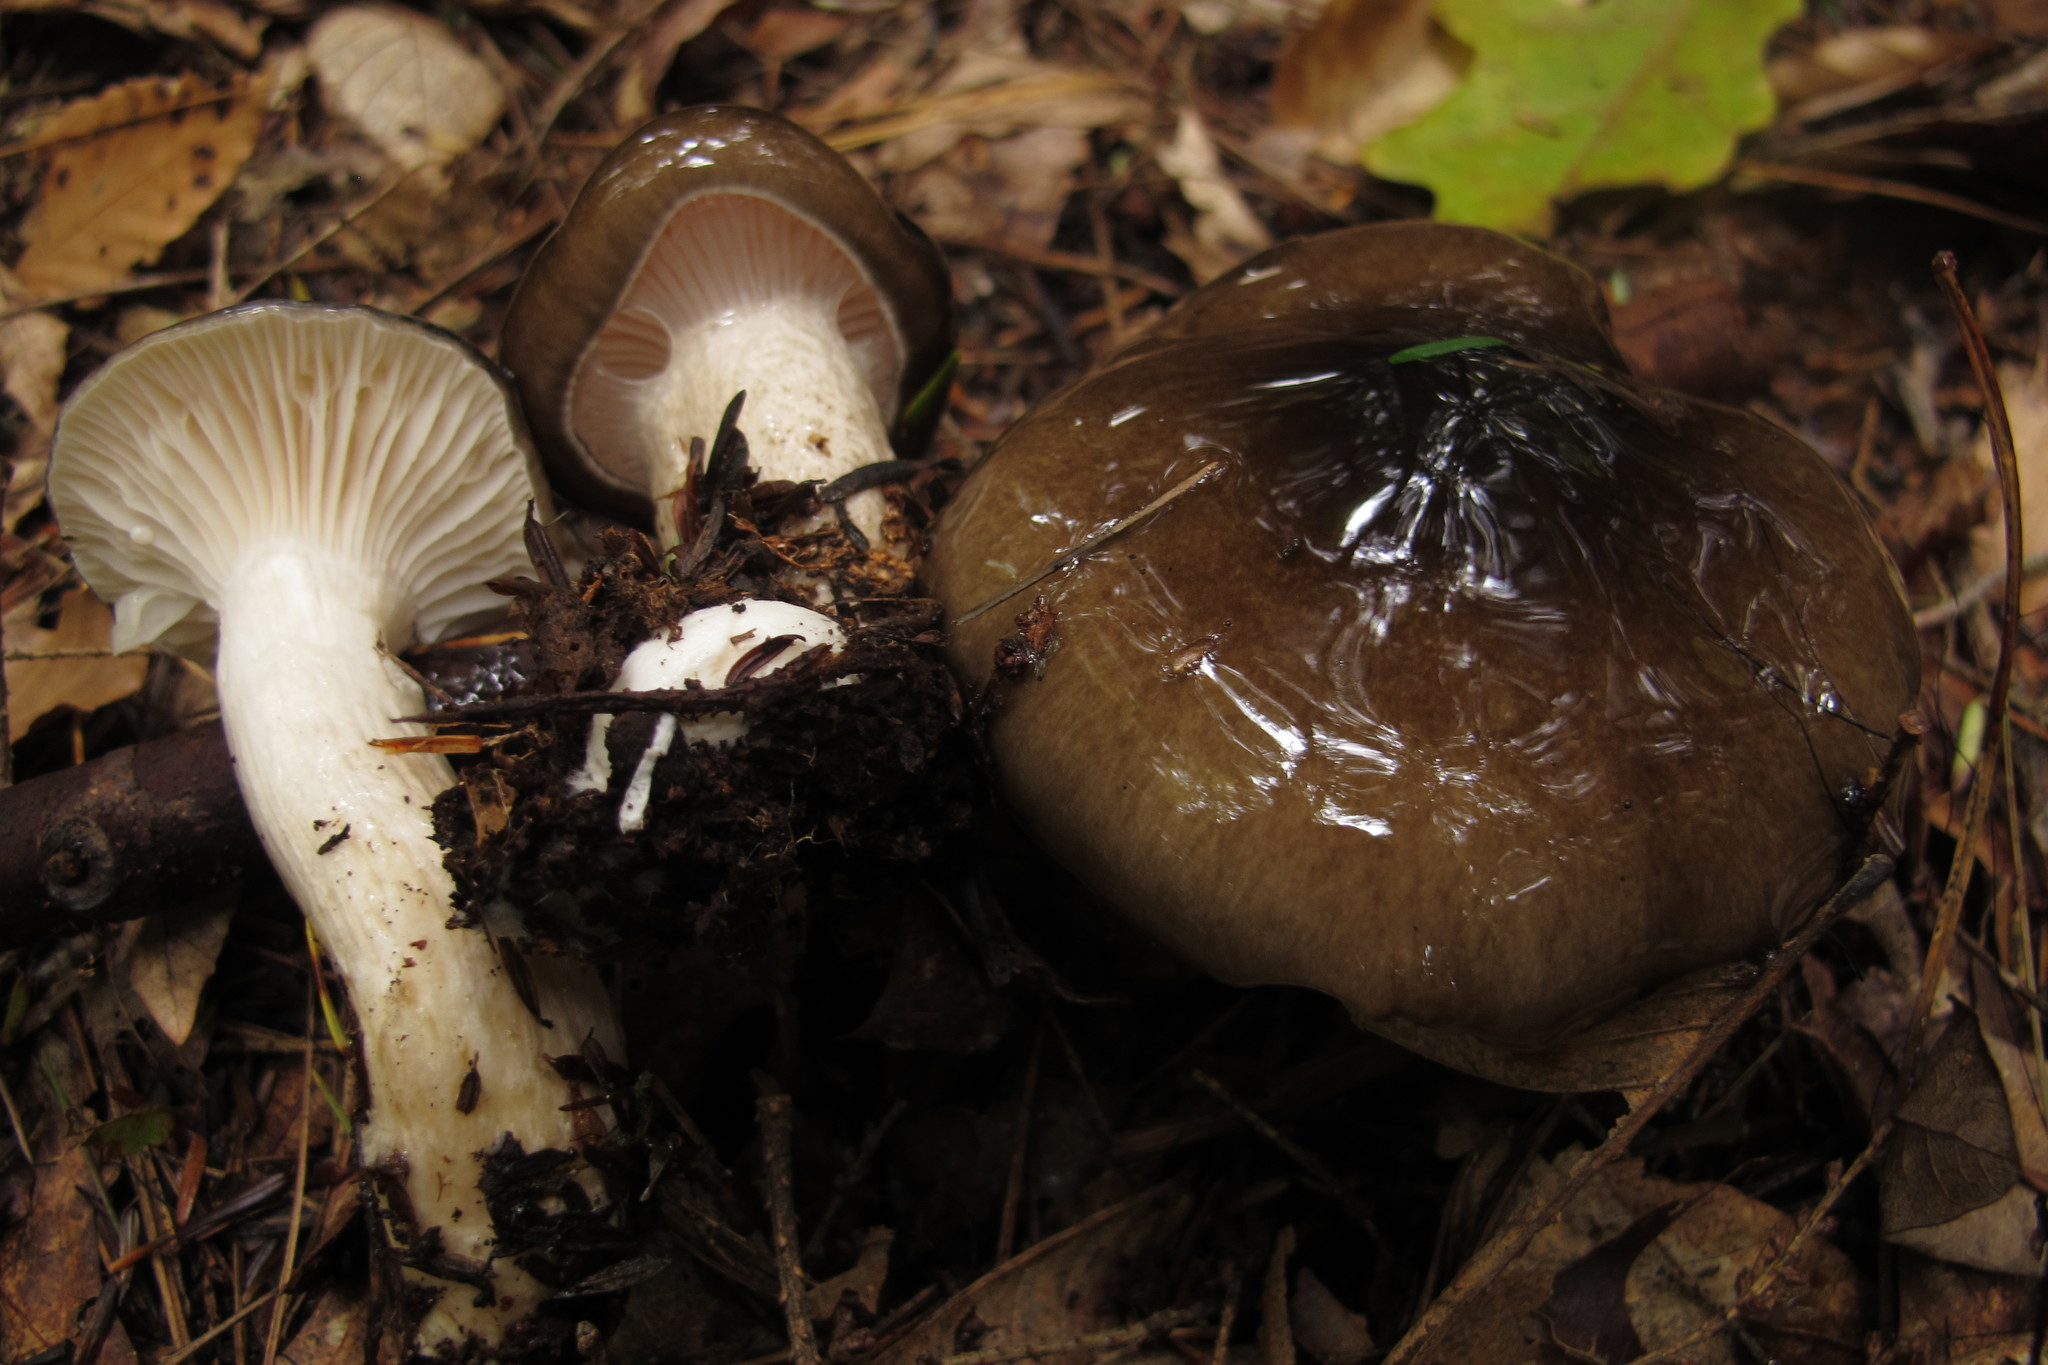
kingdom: Fungi
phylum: Basidiomycota
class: Agaricomycetes
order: Agaricales
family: Hygrophoraceae
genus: Hygrophorus
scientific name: Hygrophorus fuligineus
